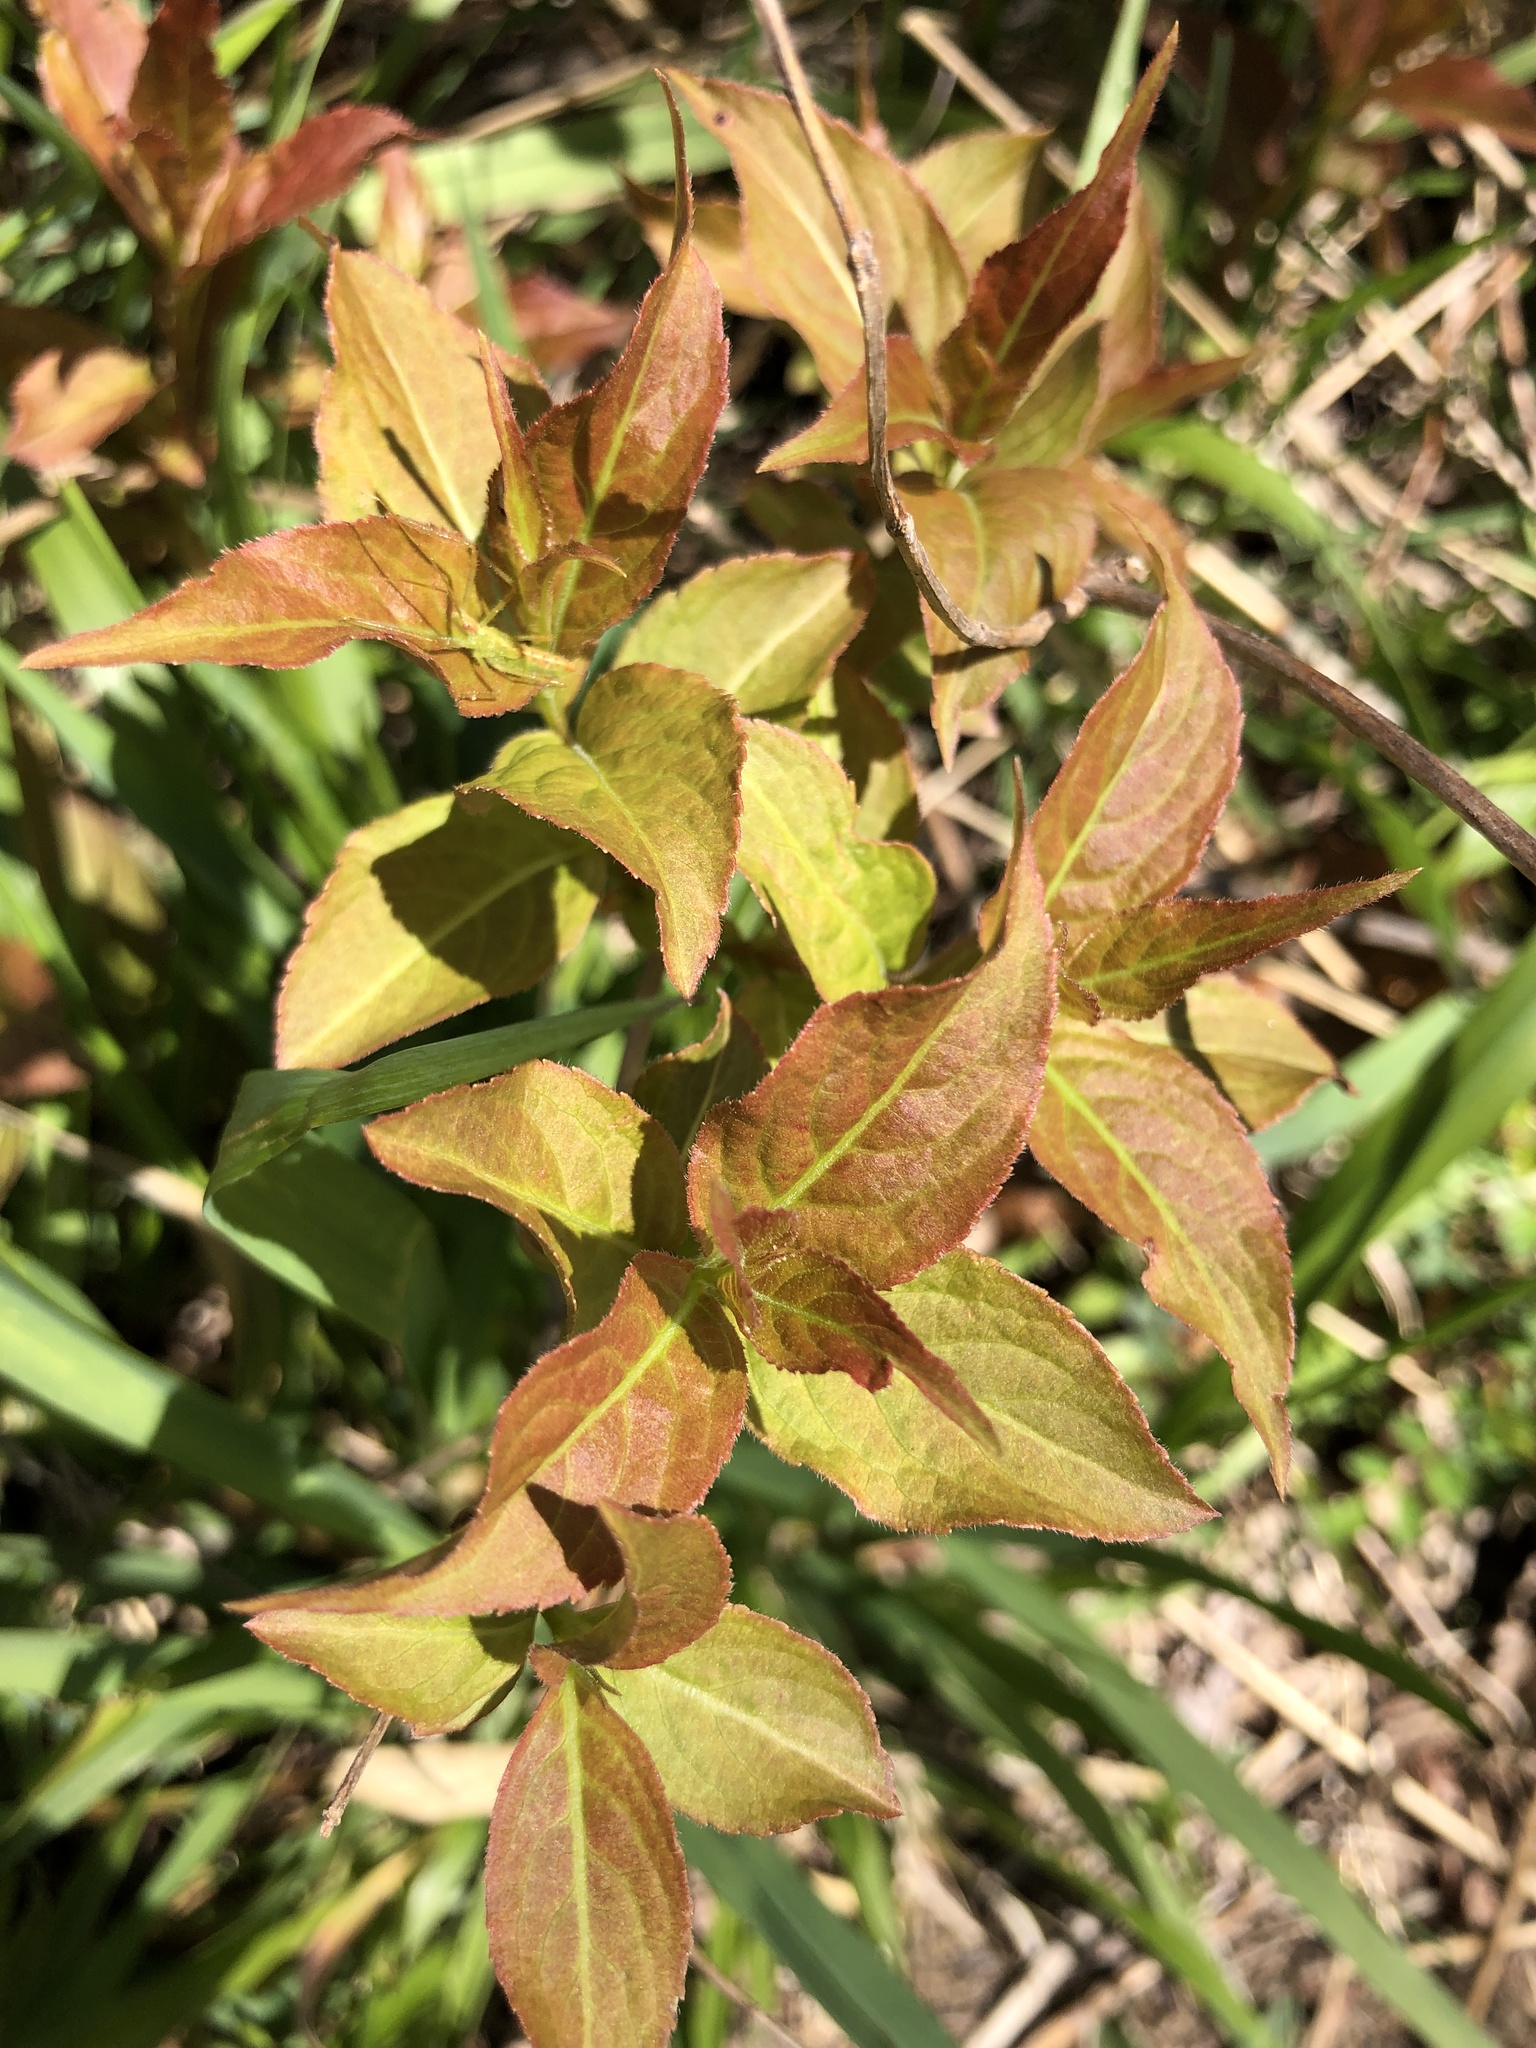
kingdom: Plantae
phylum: Tracheophyta
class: Magnoliopsida
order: Dipsacales
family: Caprifoliaceae
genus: Diervilla
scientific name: Diervilla lonicera
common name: Bush-honeysuckle
